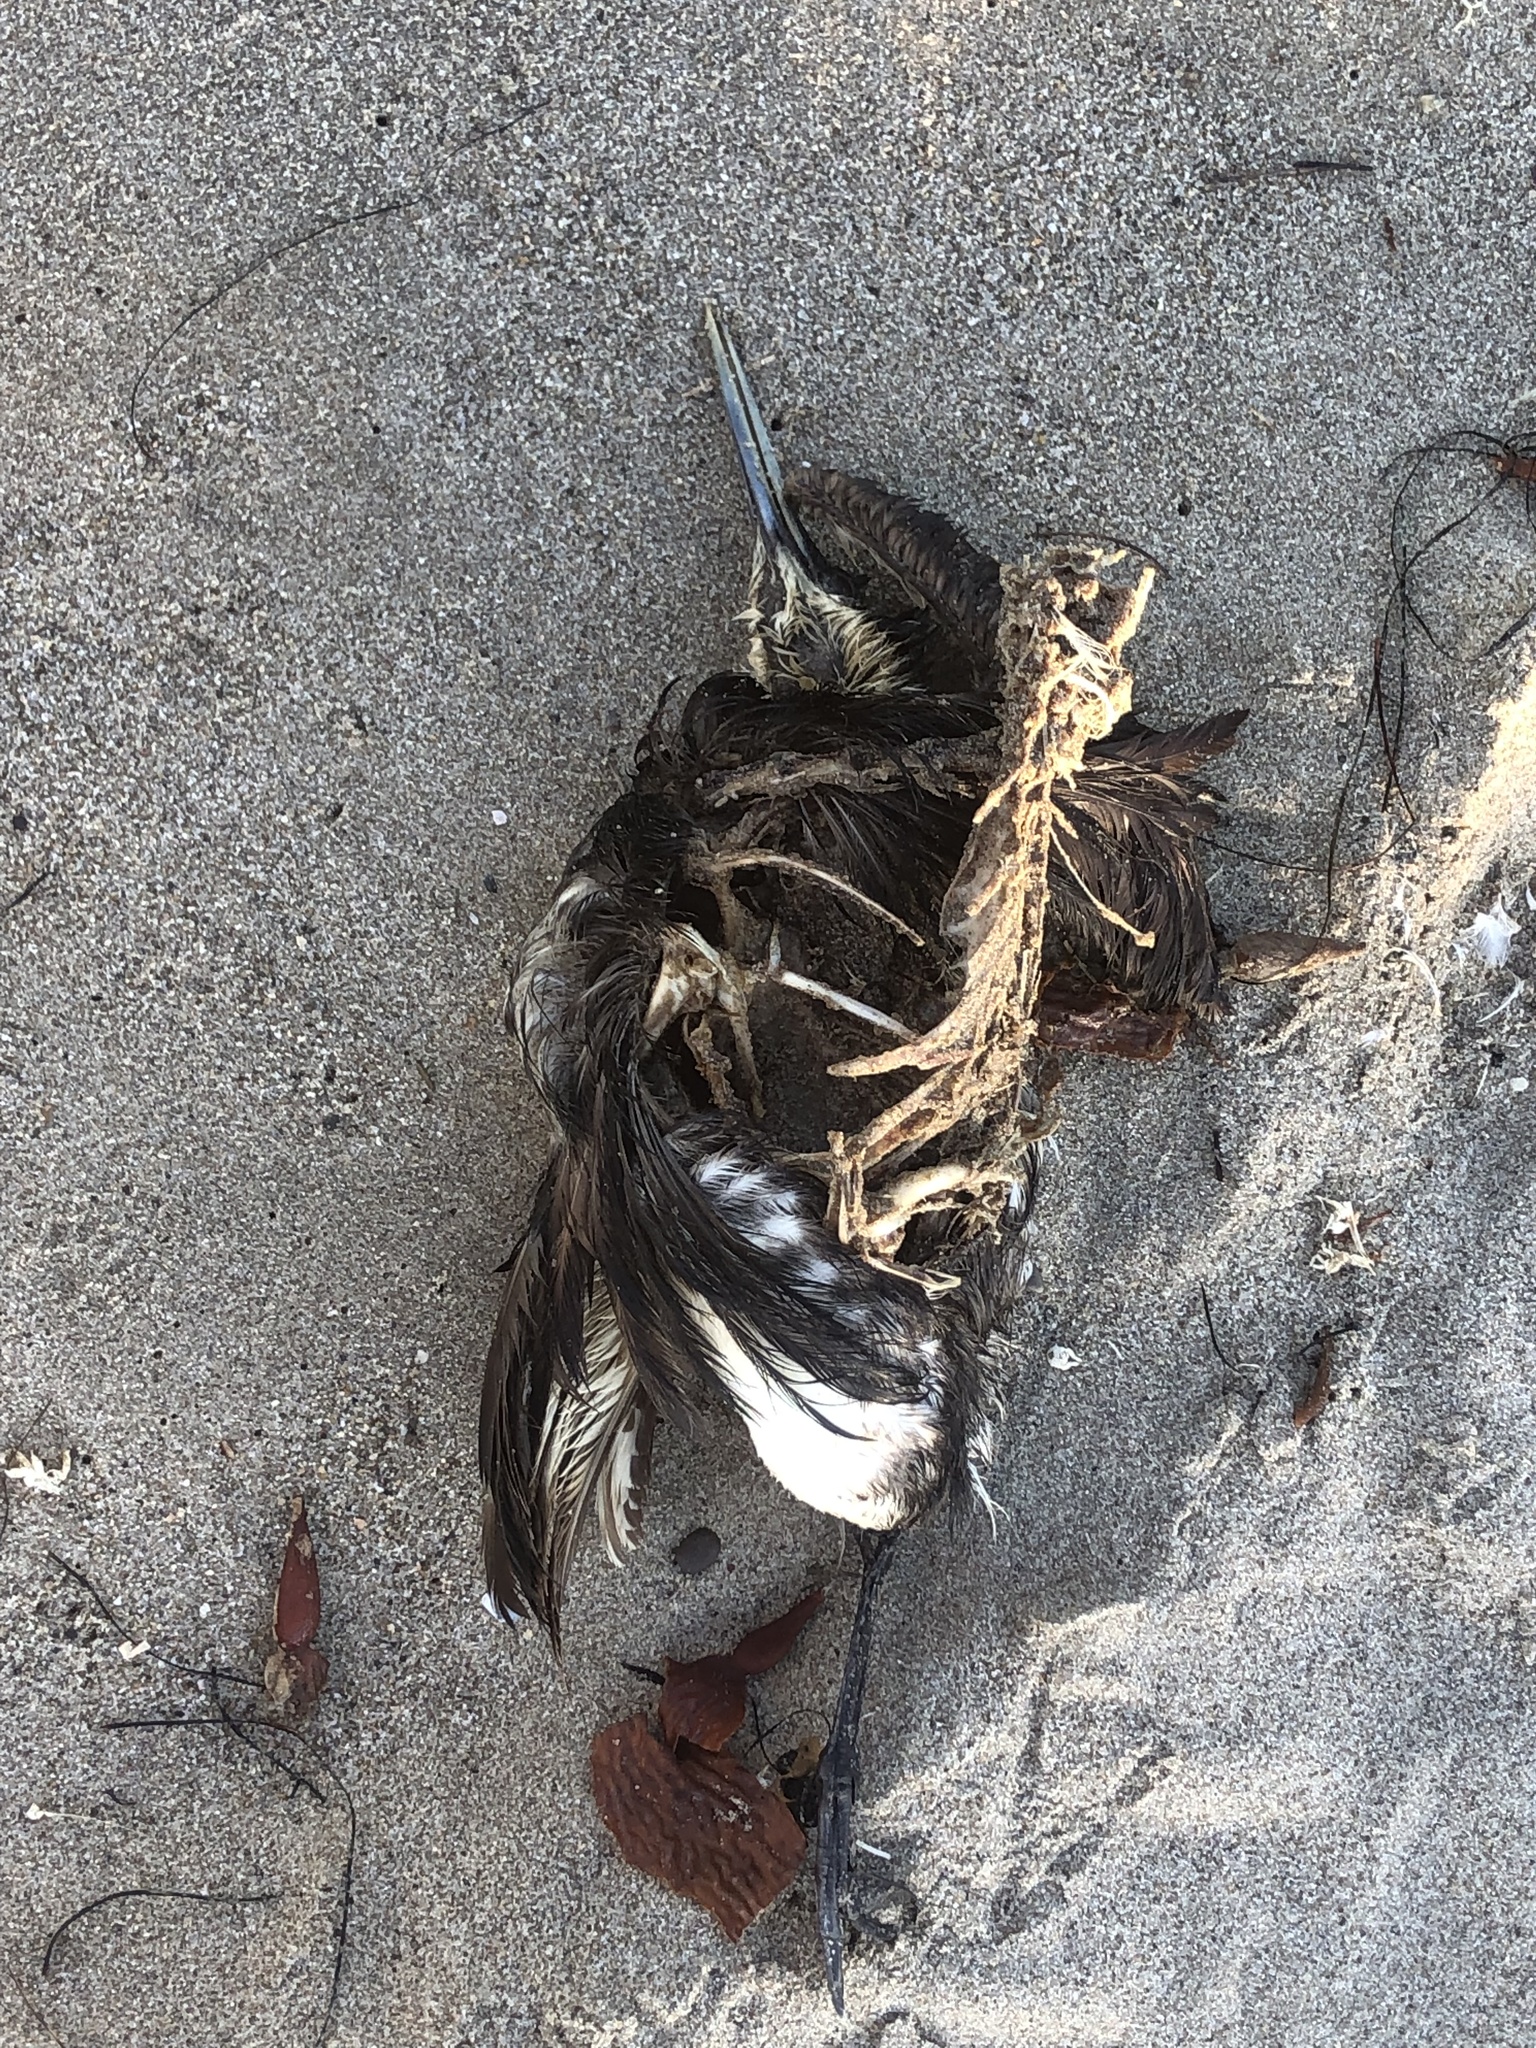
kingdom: Animalia
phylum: Chordata
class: Aves
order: Podicipediformes
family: Podicipedidae
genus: Aechmophorus
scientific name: Aechmophorus occidentalis
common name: Western grebe
